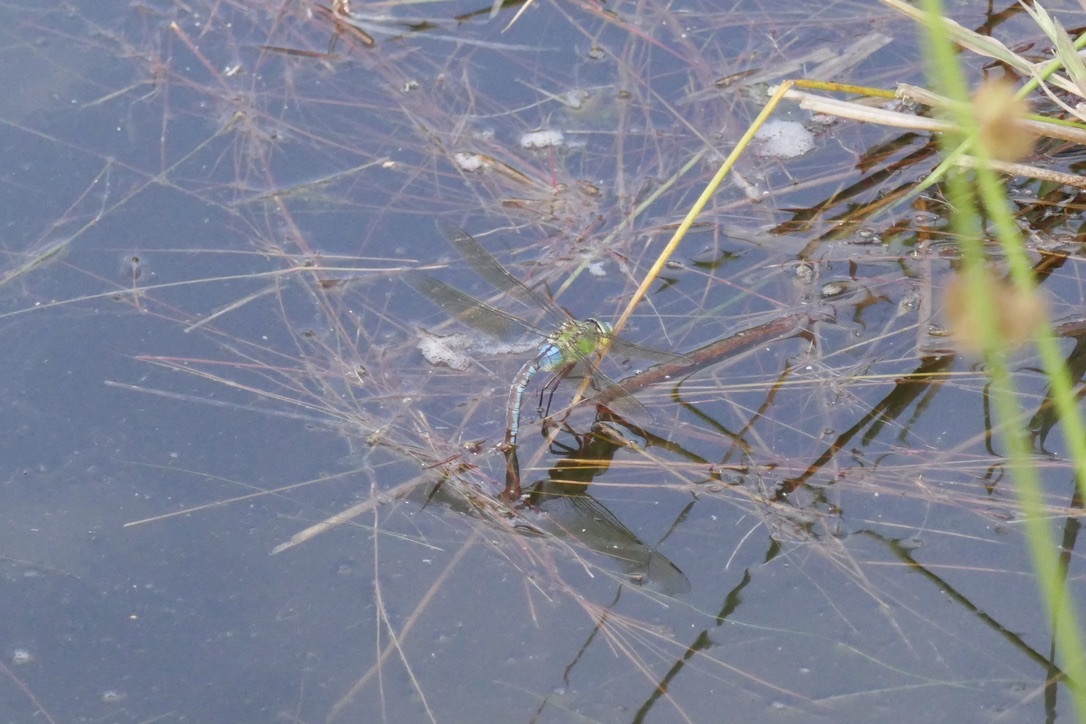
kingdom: Animalia
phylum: Arthropoda
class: Insecta
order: Odonata
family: Aeshnidae
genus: Anax
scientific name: Anax imperator
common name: Emperor dragonfly
